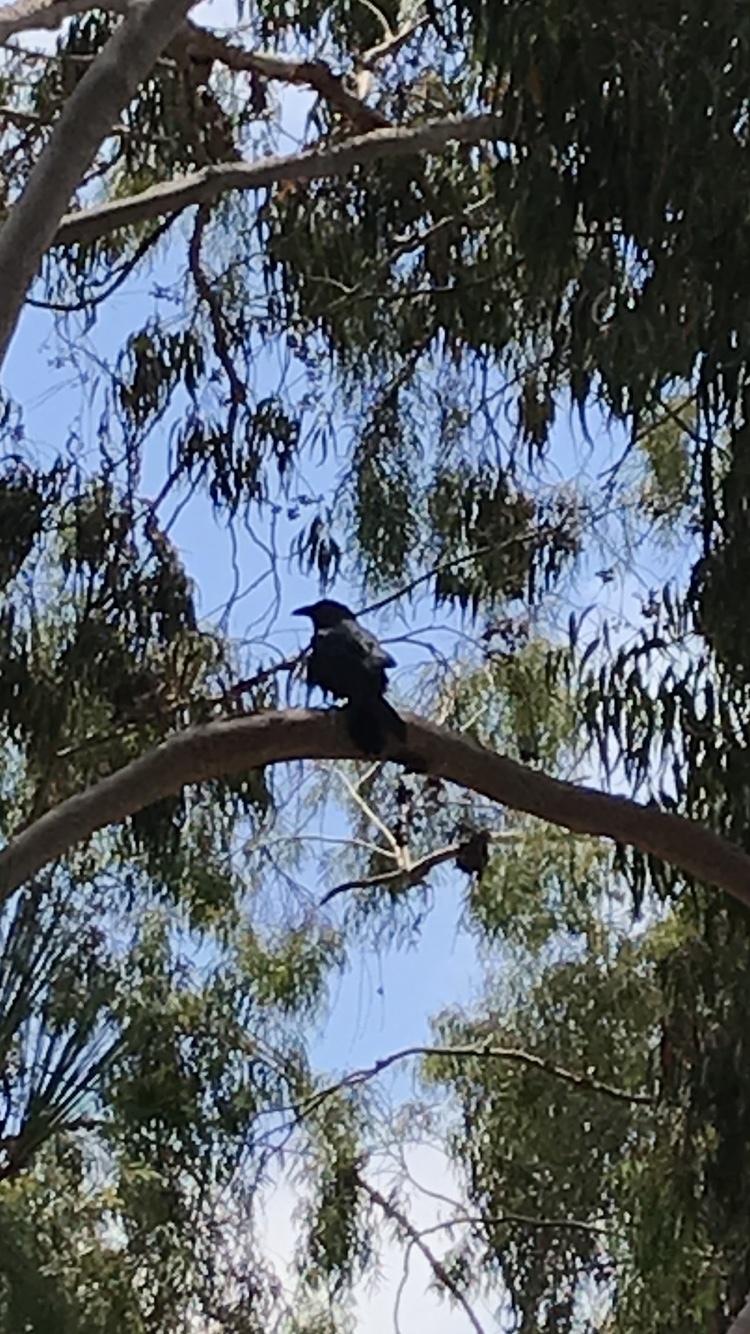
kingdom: Animalia
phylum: Chordata
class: Aves
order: Passeriformes
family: Corvidae
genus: Corvus
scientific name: Corvus corax
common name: Common raven
